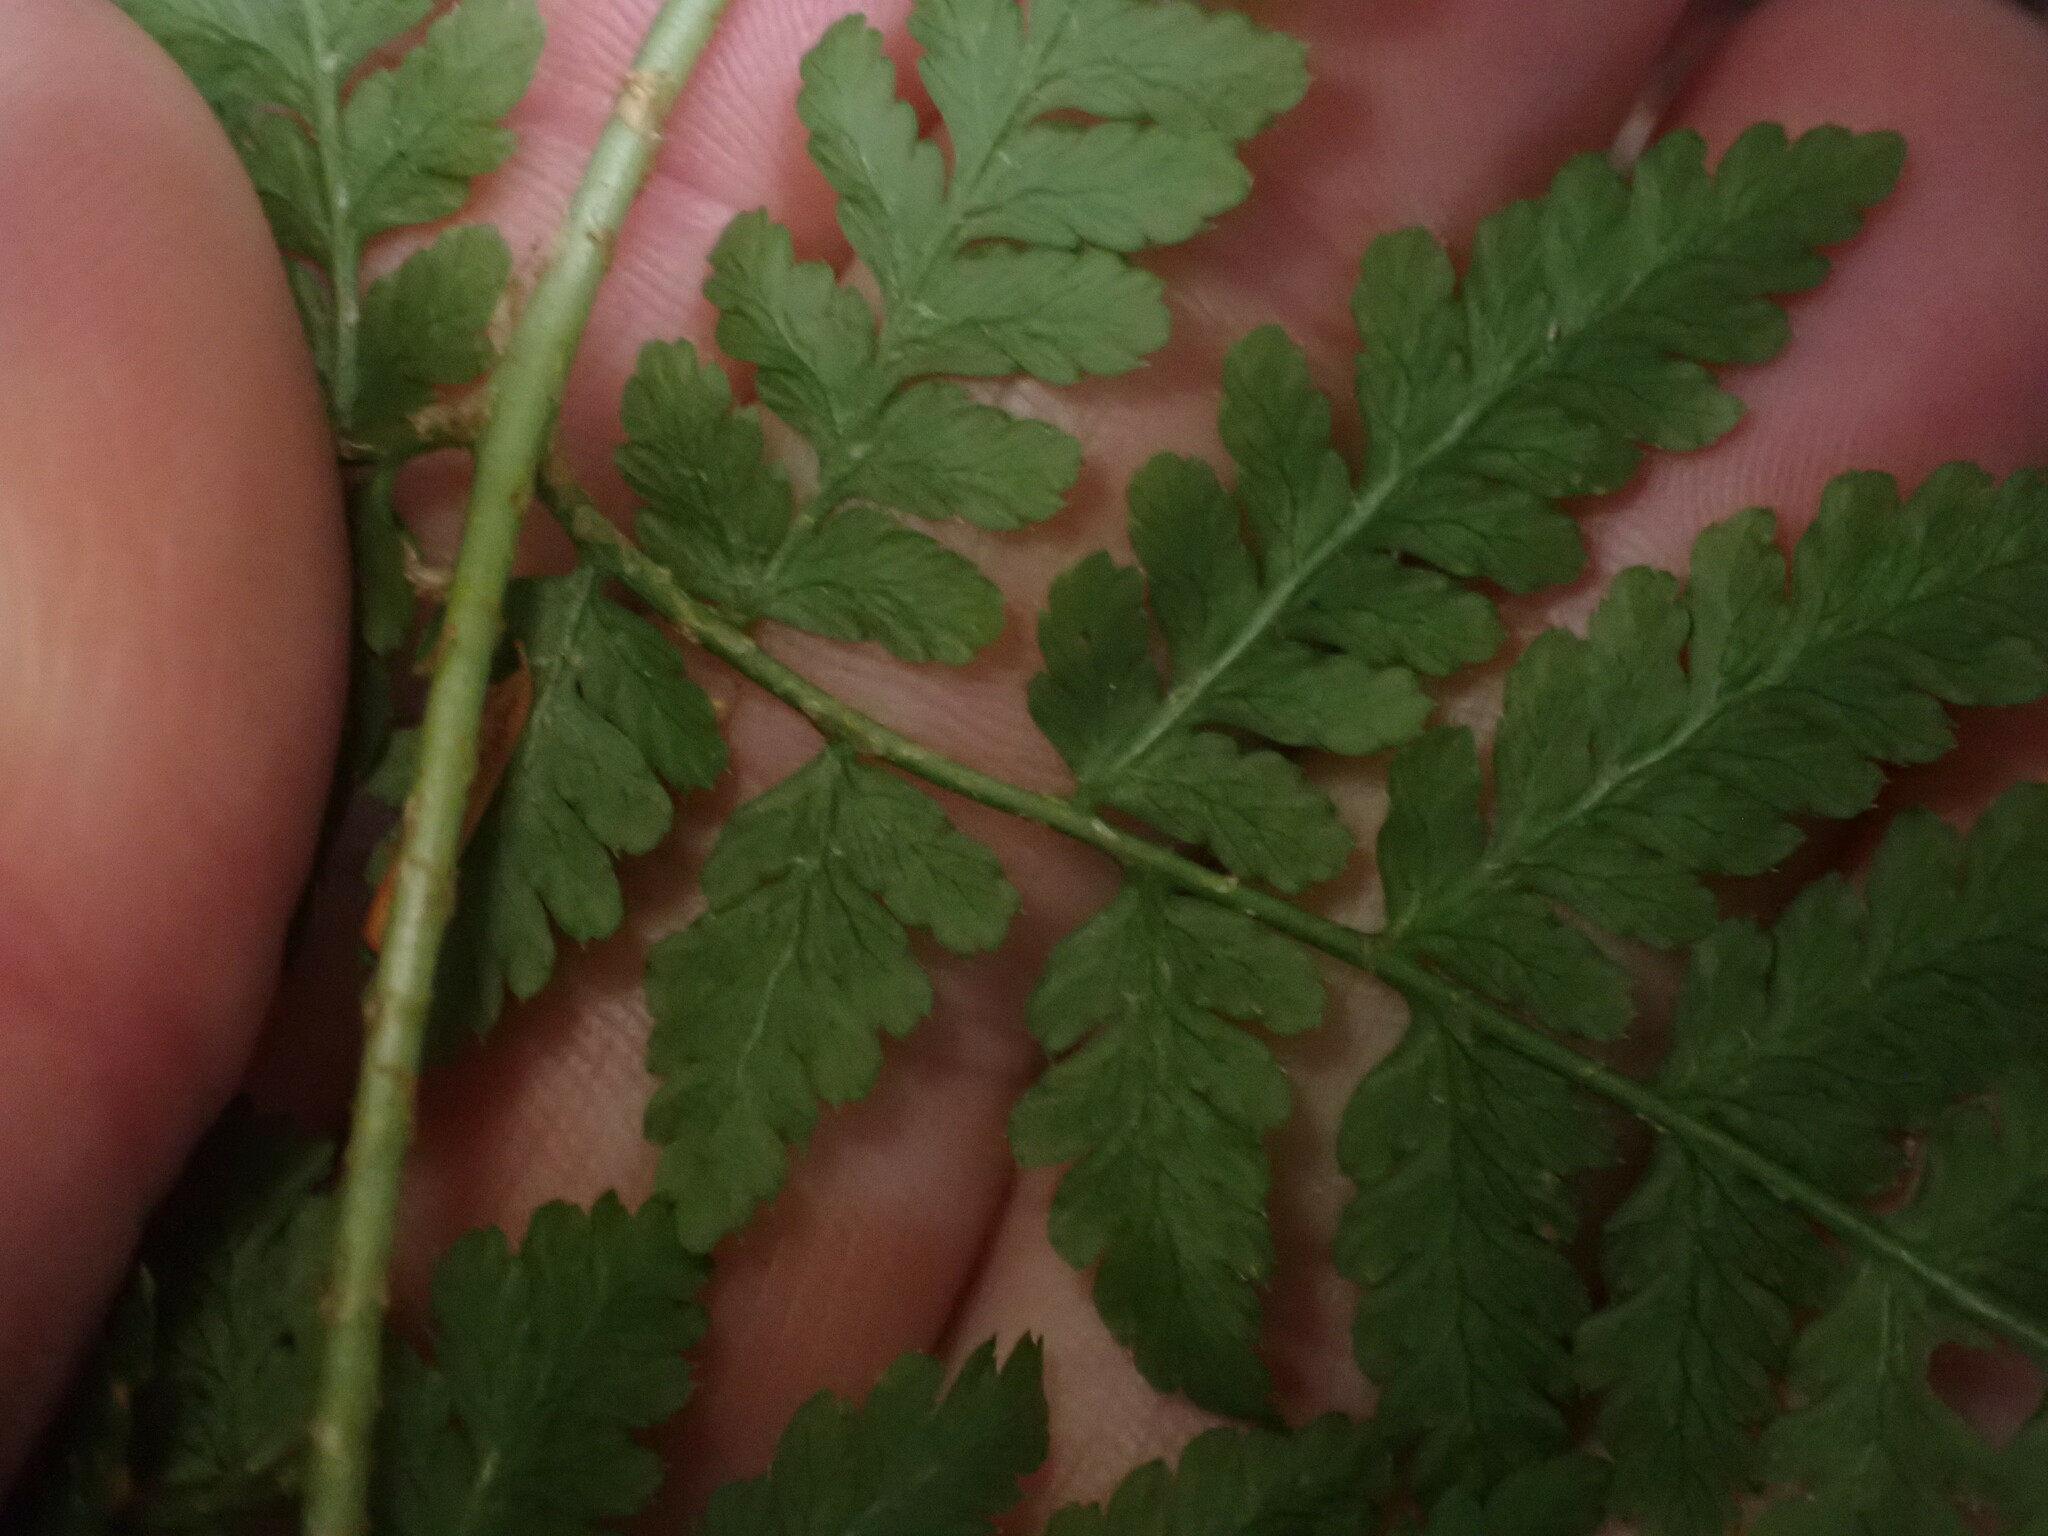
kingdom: Plantae
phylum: Tracheophyta
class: Polypodiopsida
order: Polypodiales
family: Dryopteridaceae
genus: Dryopteris
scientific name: Dryopteris expansa
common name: Northern buckler fern
